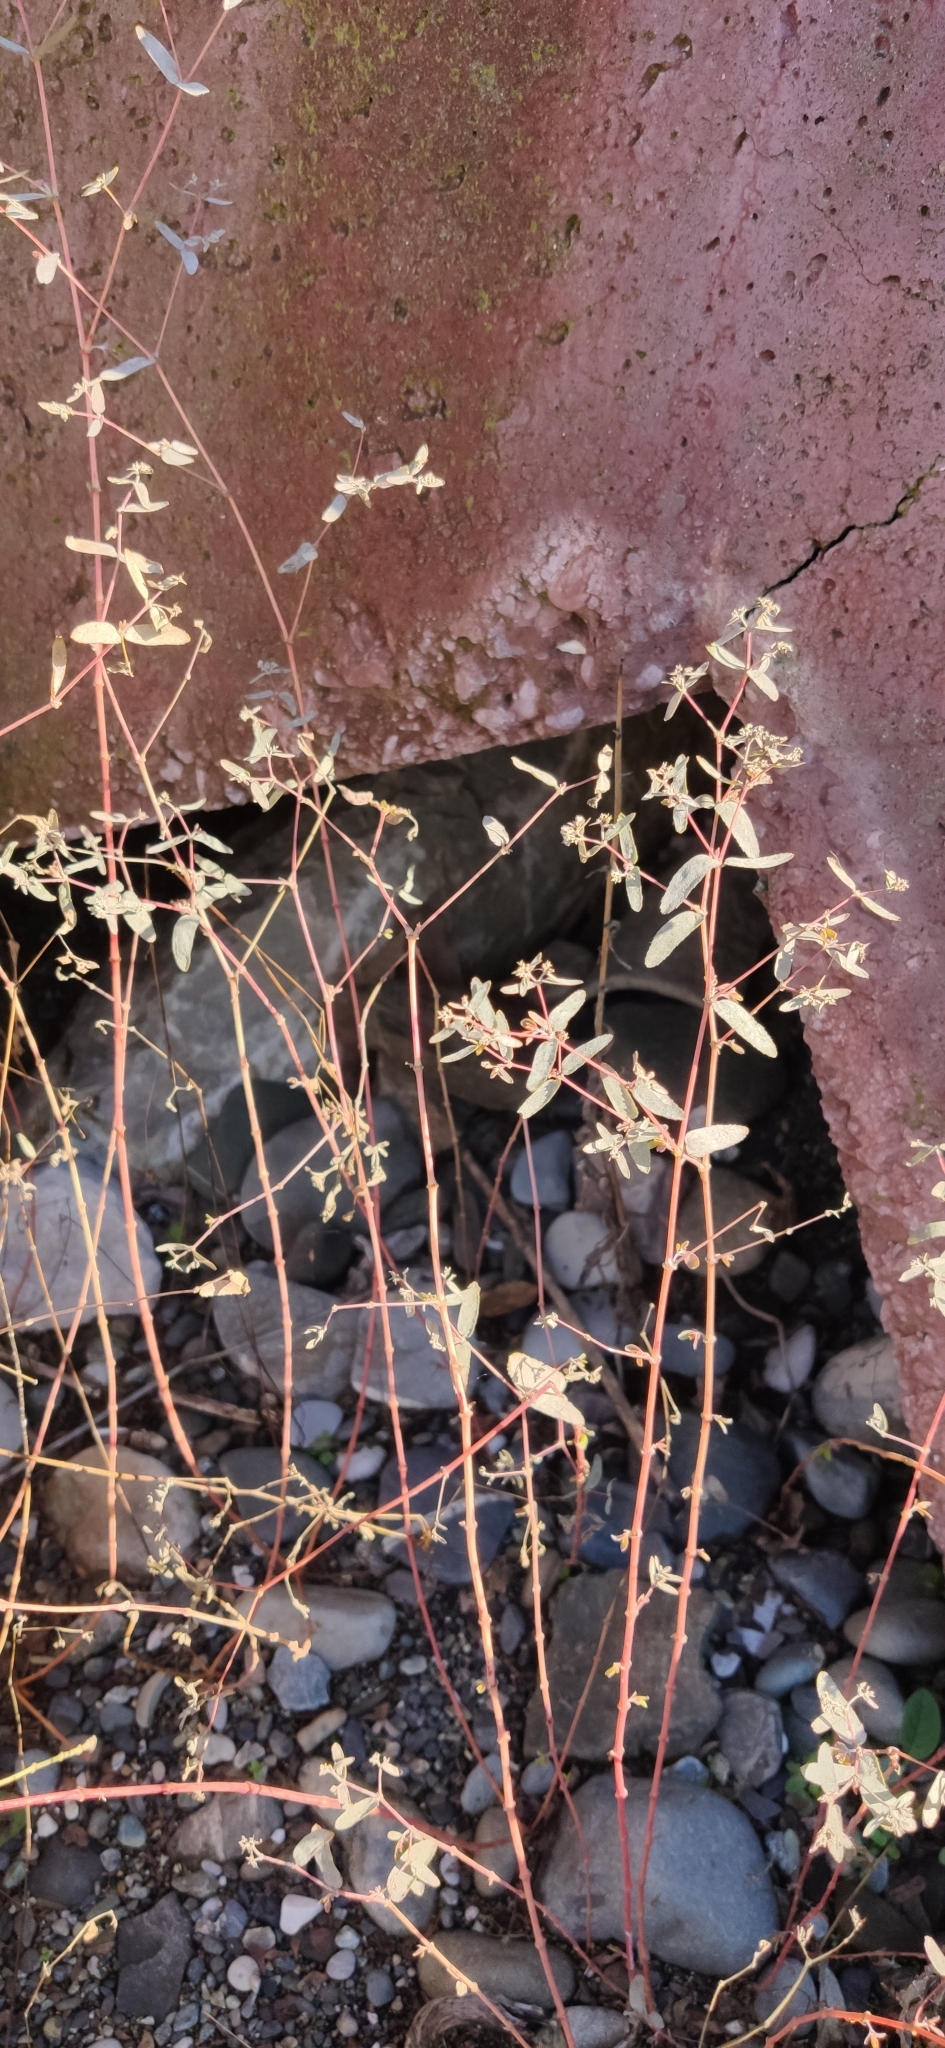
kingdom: Plantae
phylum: Tracheophyta
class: Magnoliopsida
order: Malpighiales
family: Euphorbiaceae
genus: Euphorbia
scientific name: Euphorbia nutans
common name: Eyebane
